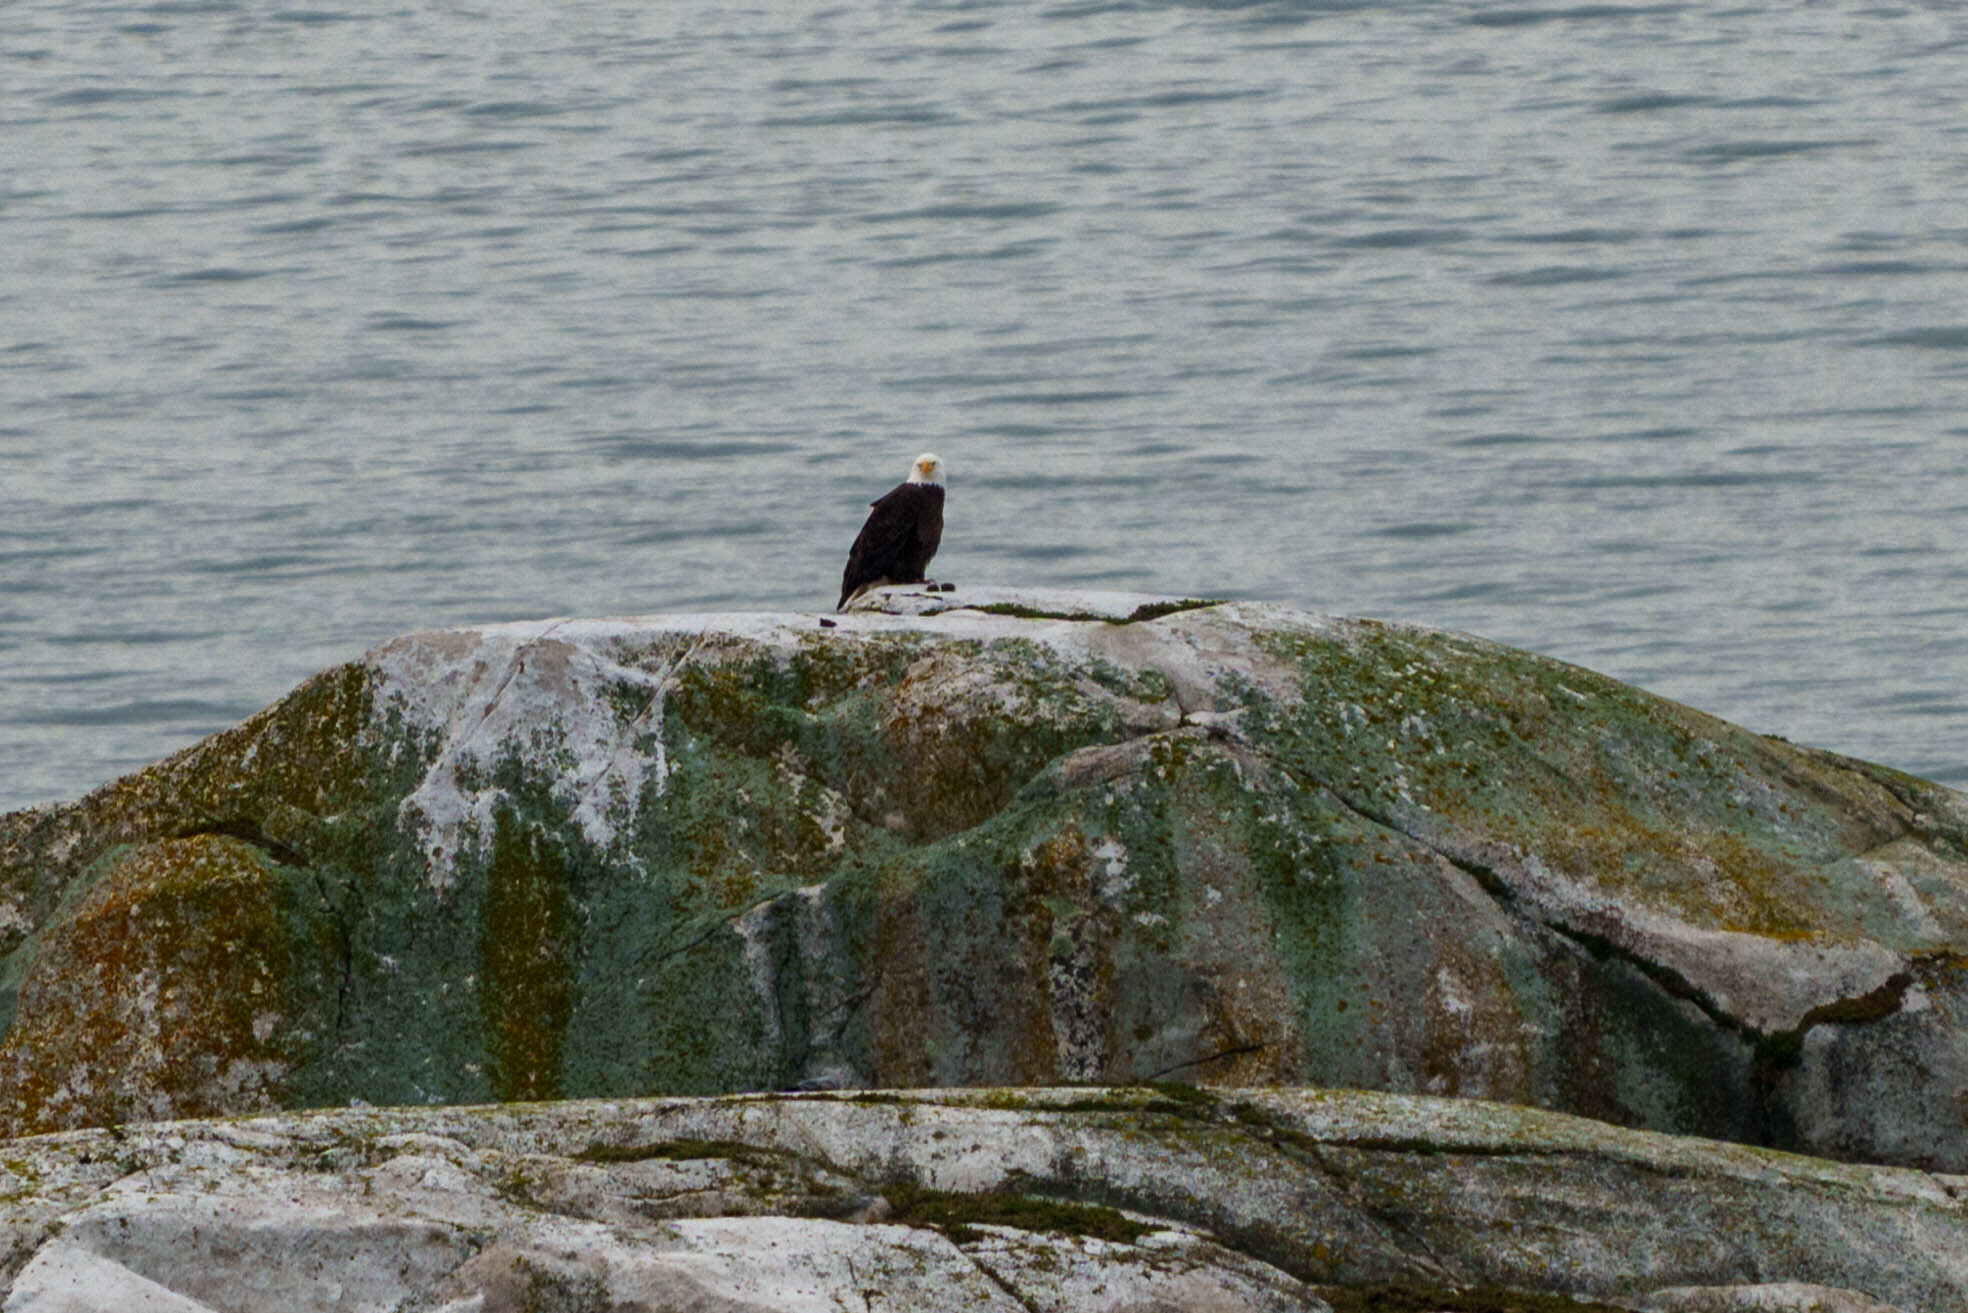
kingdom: Animalia
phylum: Chordata
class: Aves
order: Accipitriformes
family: Accipitridae
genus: Haliaeetus
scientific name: Haliaeetus leucocephalus
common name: Bald eagle
